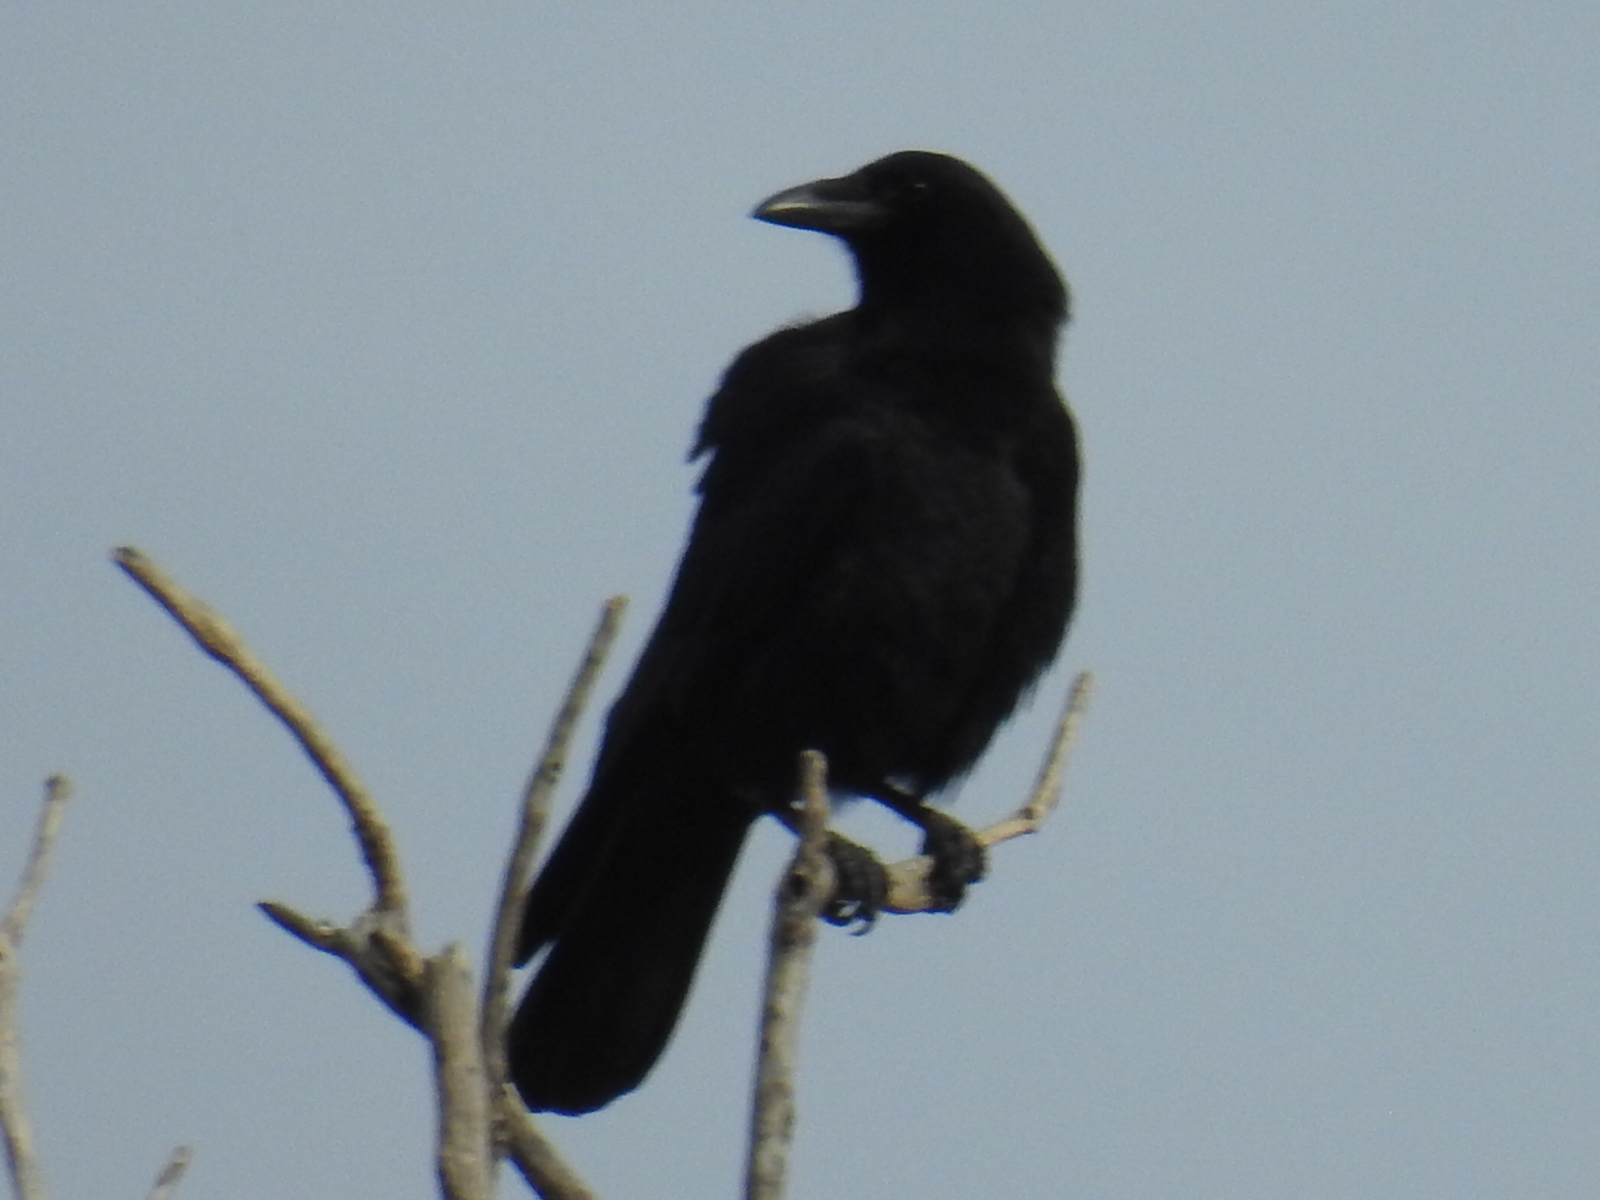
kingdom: Animalia
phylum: Chordata
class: Aves
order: Passeriformes
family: Corvidae
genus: Corvus
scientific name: Corvus brachyrhynchos
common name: American crow
